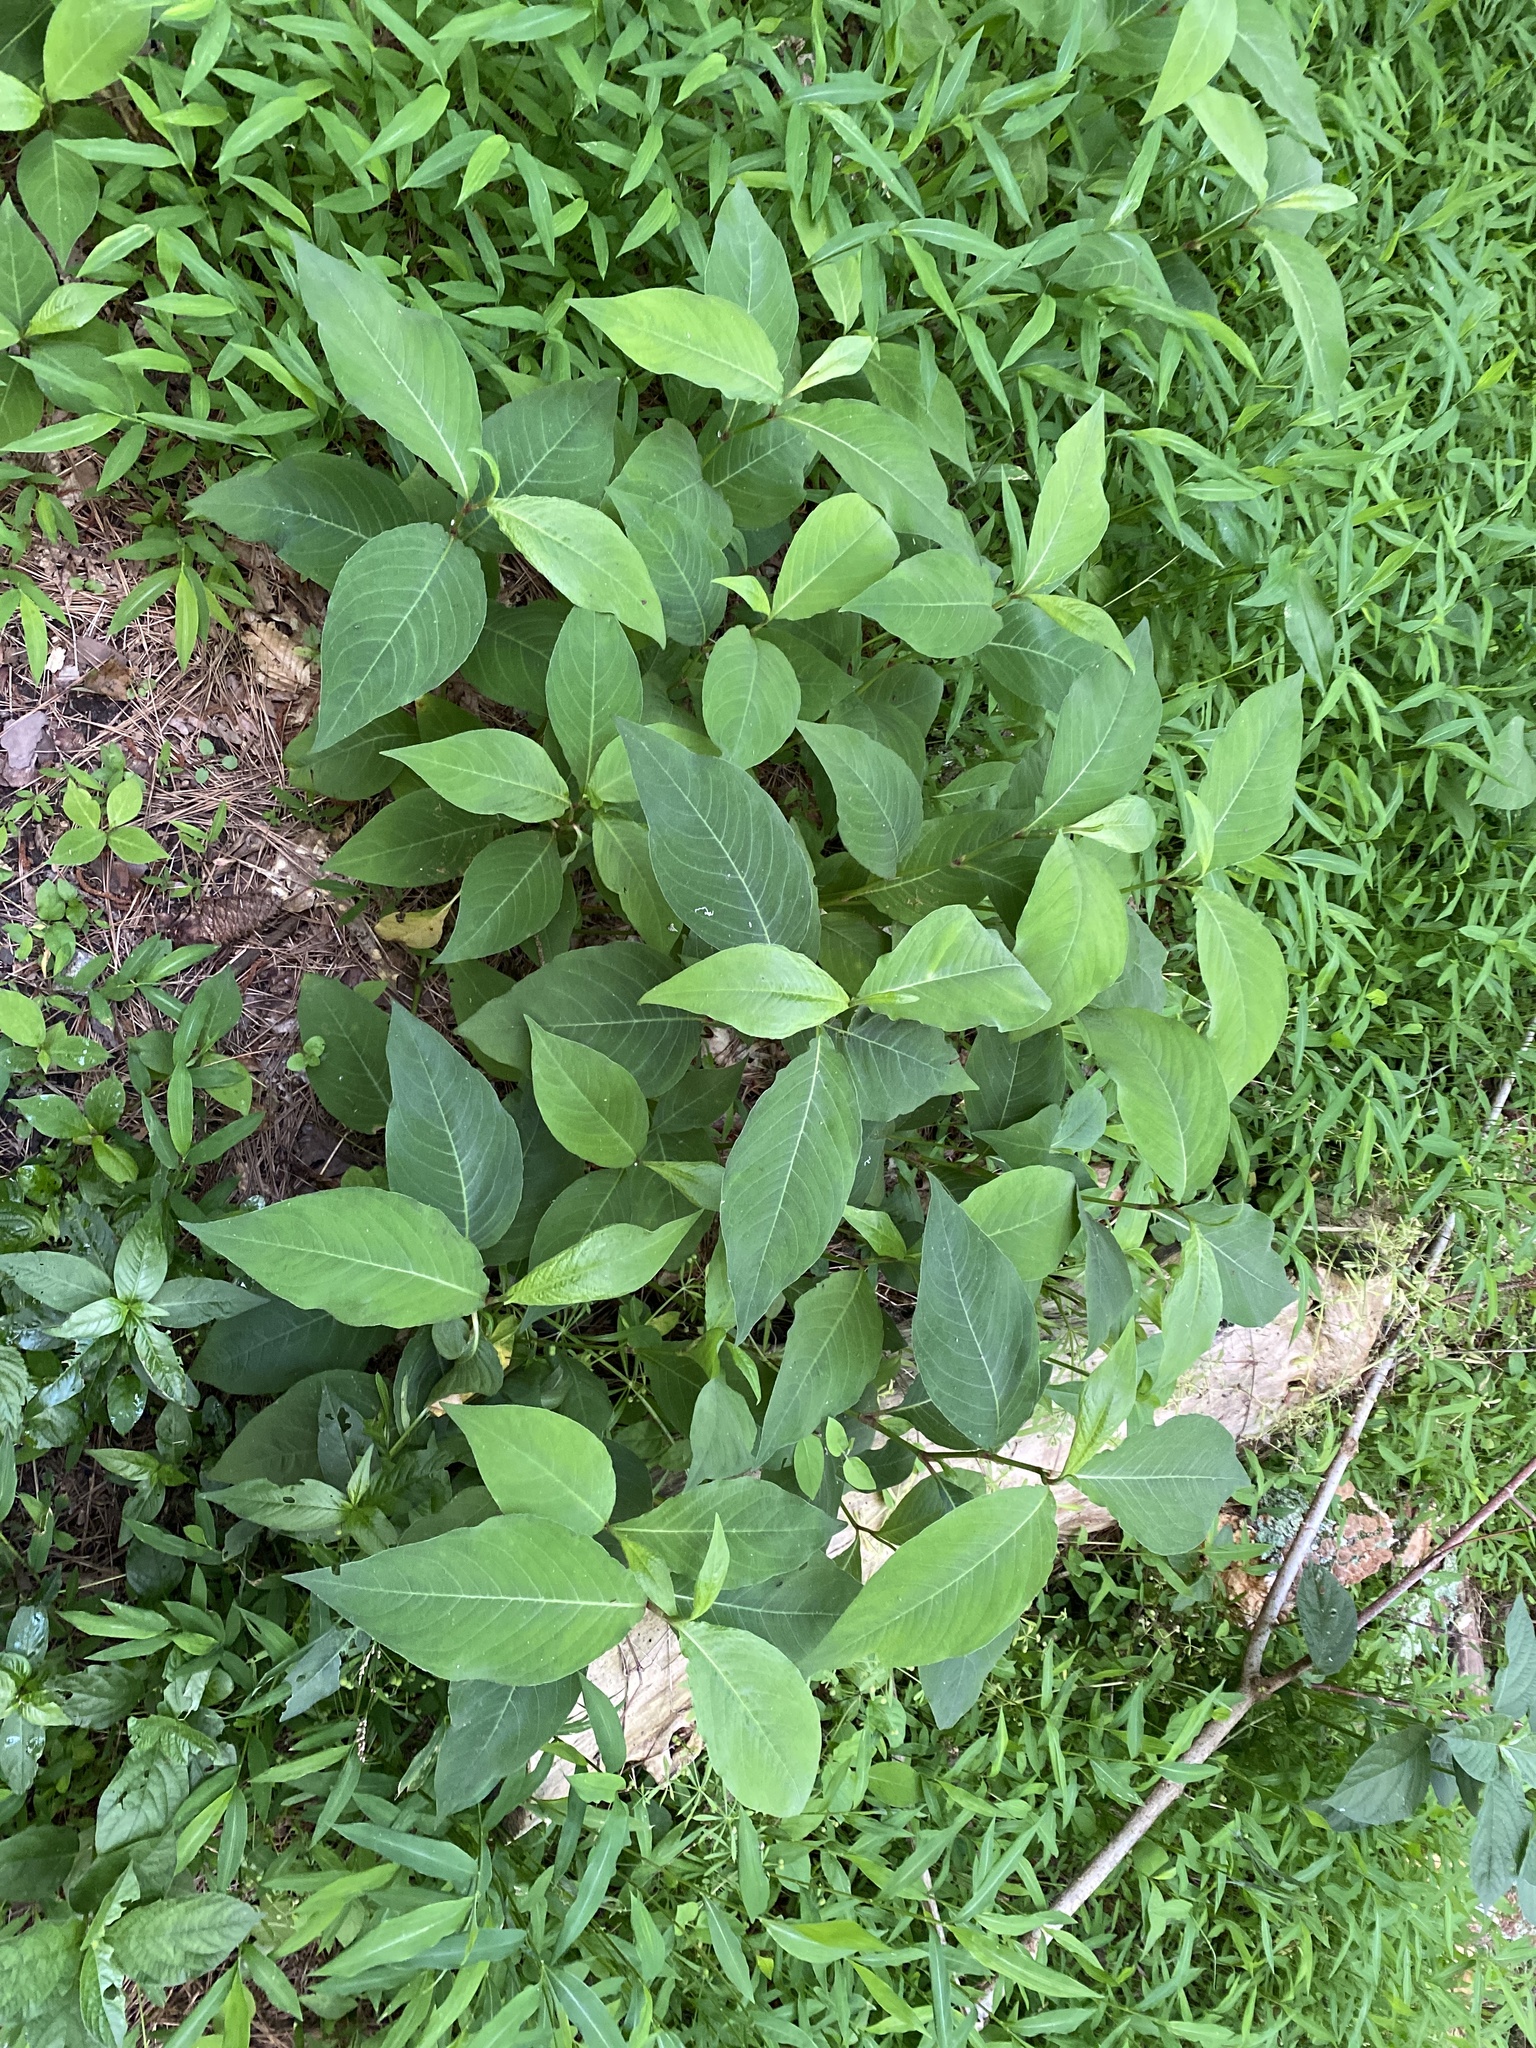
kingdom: Plantae
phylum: Tracheophyta
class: Magnoliopsida
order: Caryophyllales
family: Polygonaceae
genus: Persicaria
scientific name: Persicaria virginiana
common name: Jumpseed
